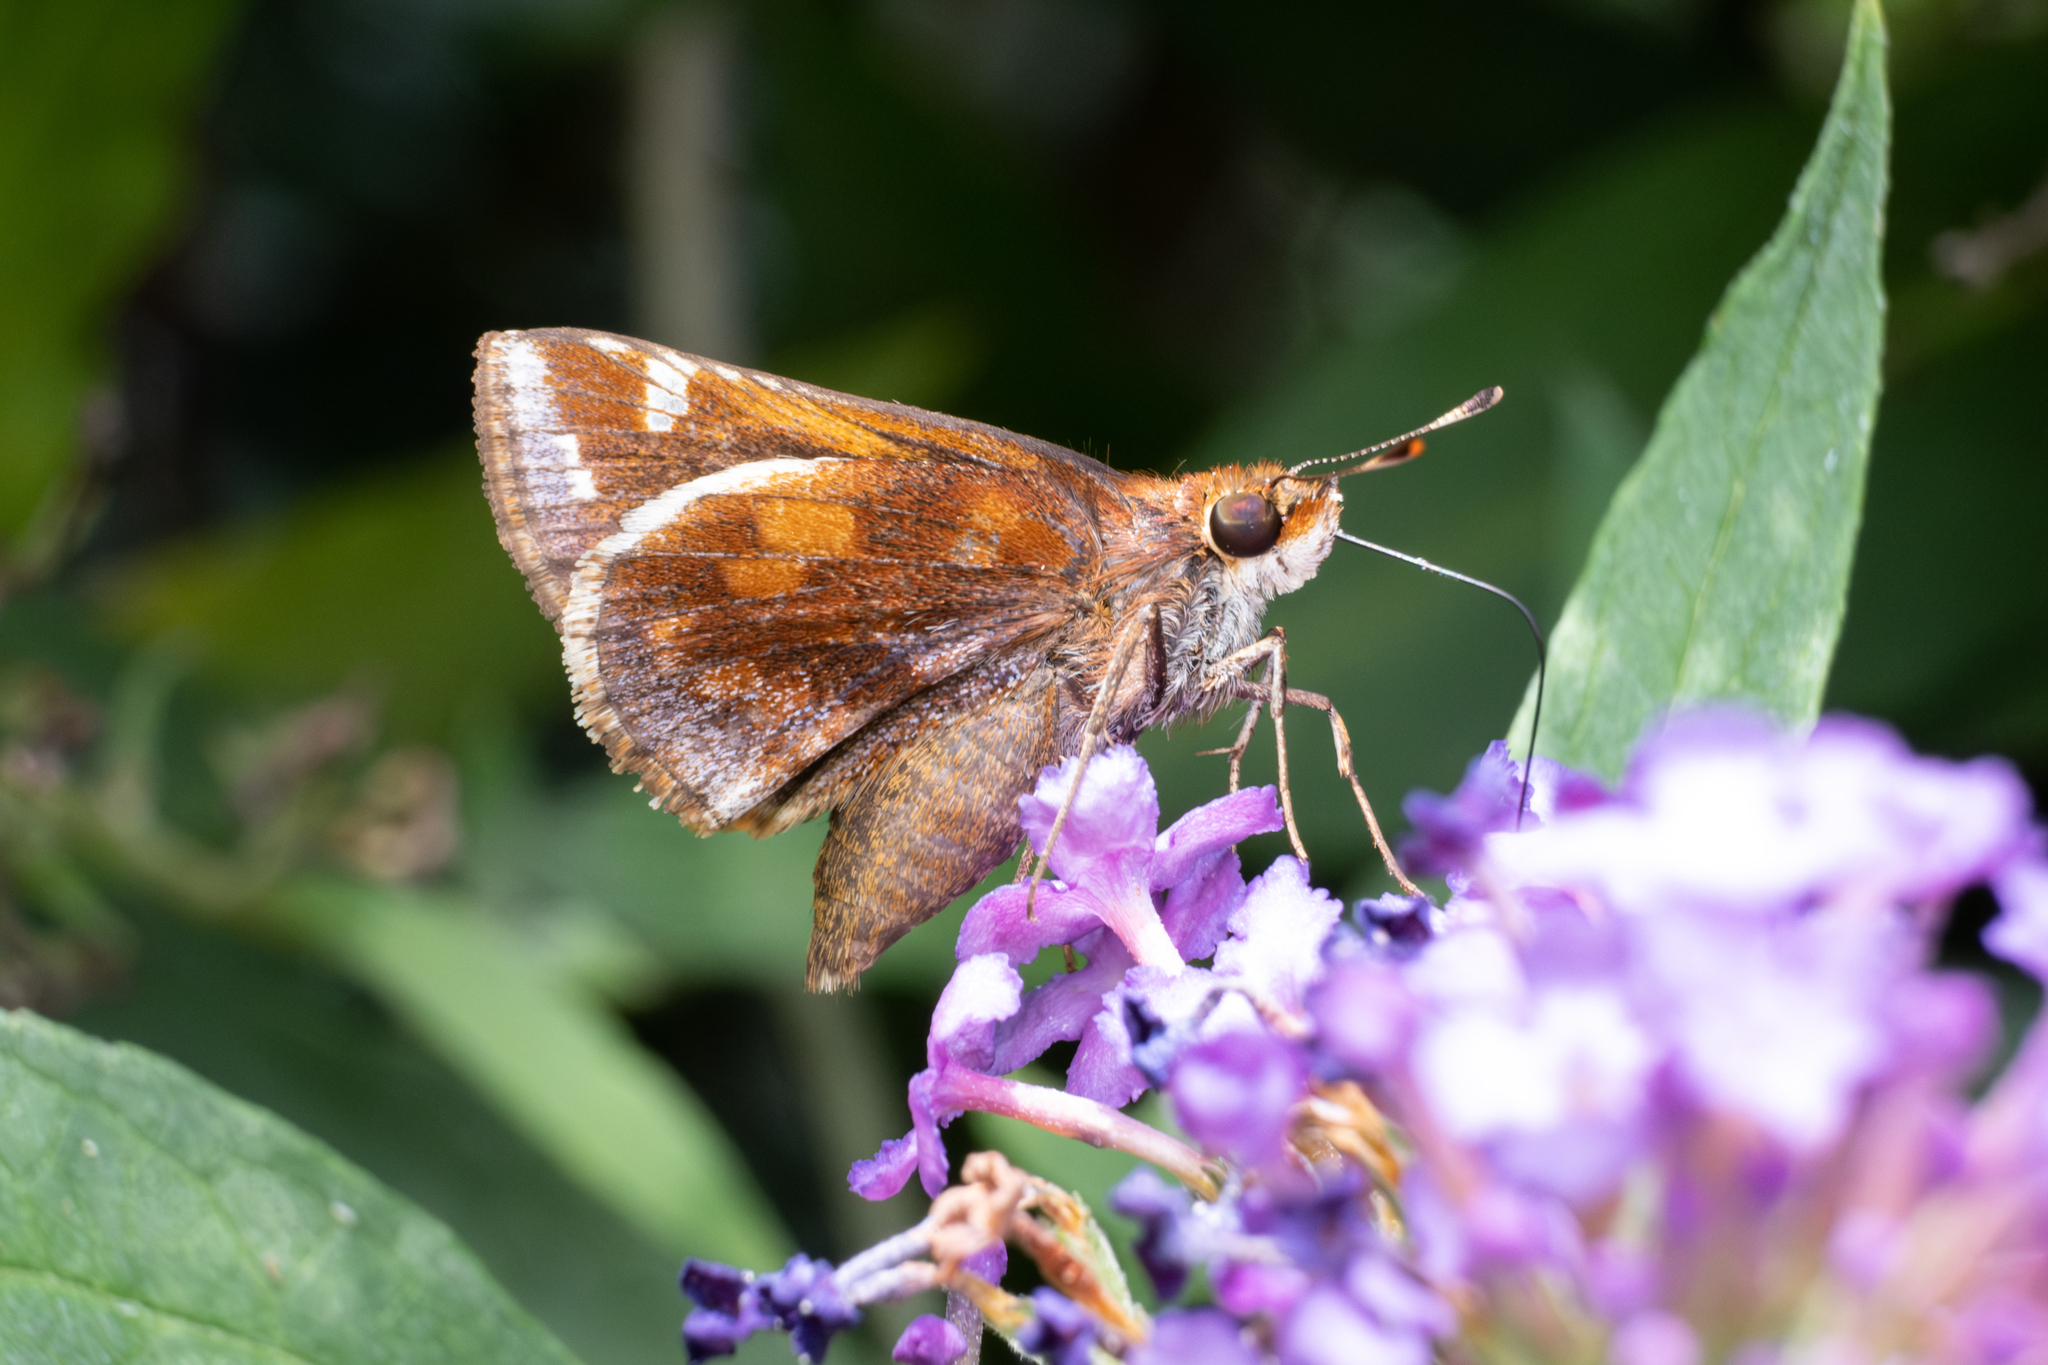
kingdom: Animalia
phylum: Arthropoda
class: Insecta
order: Lepidoptera
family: Hesperiidae
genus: Lon
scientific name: Lon zabulon
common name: Zabulon skipper
